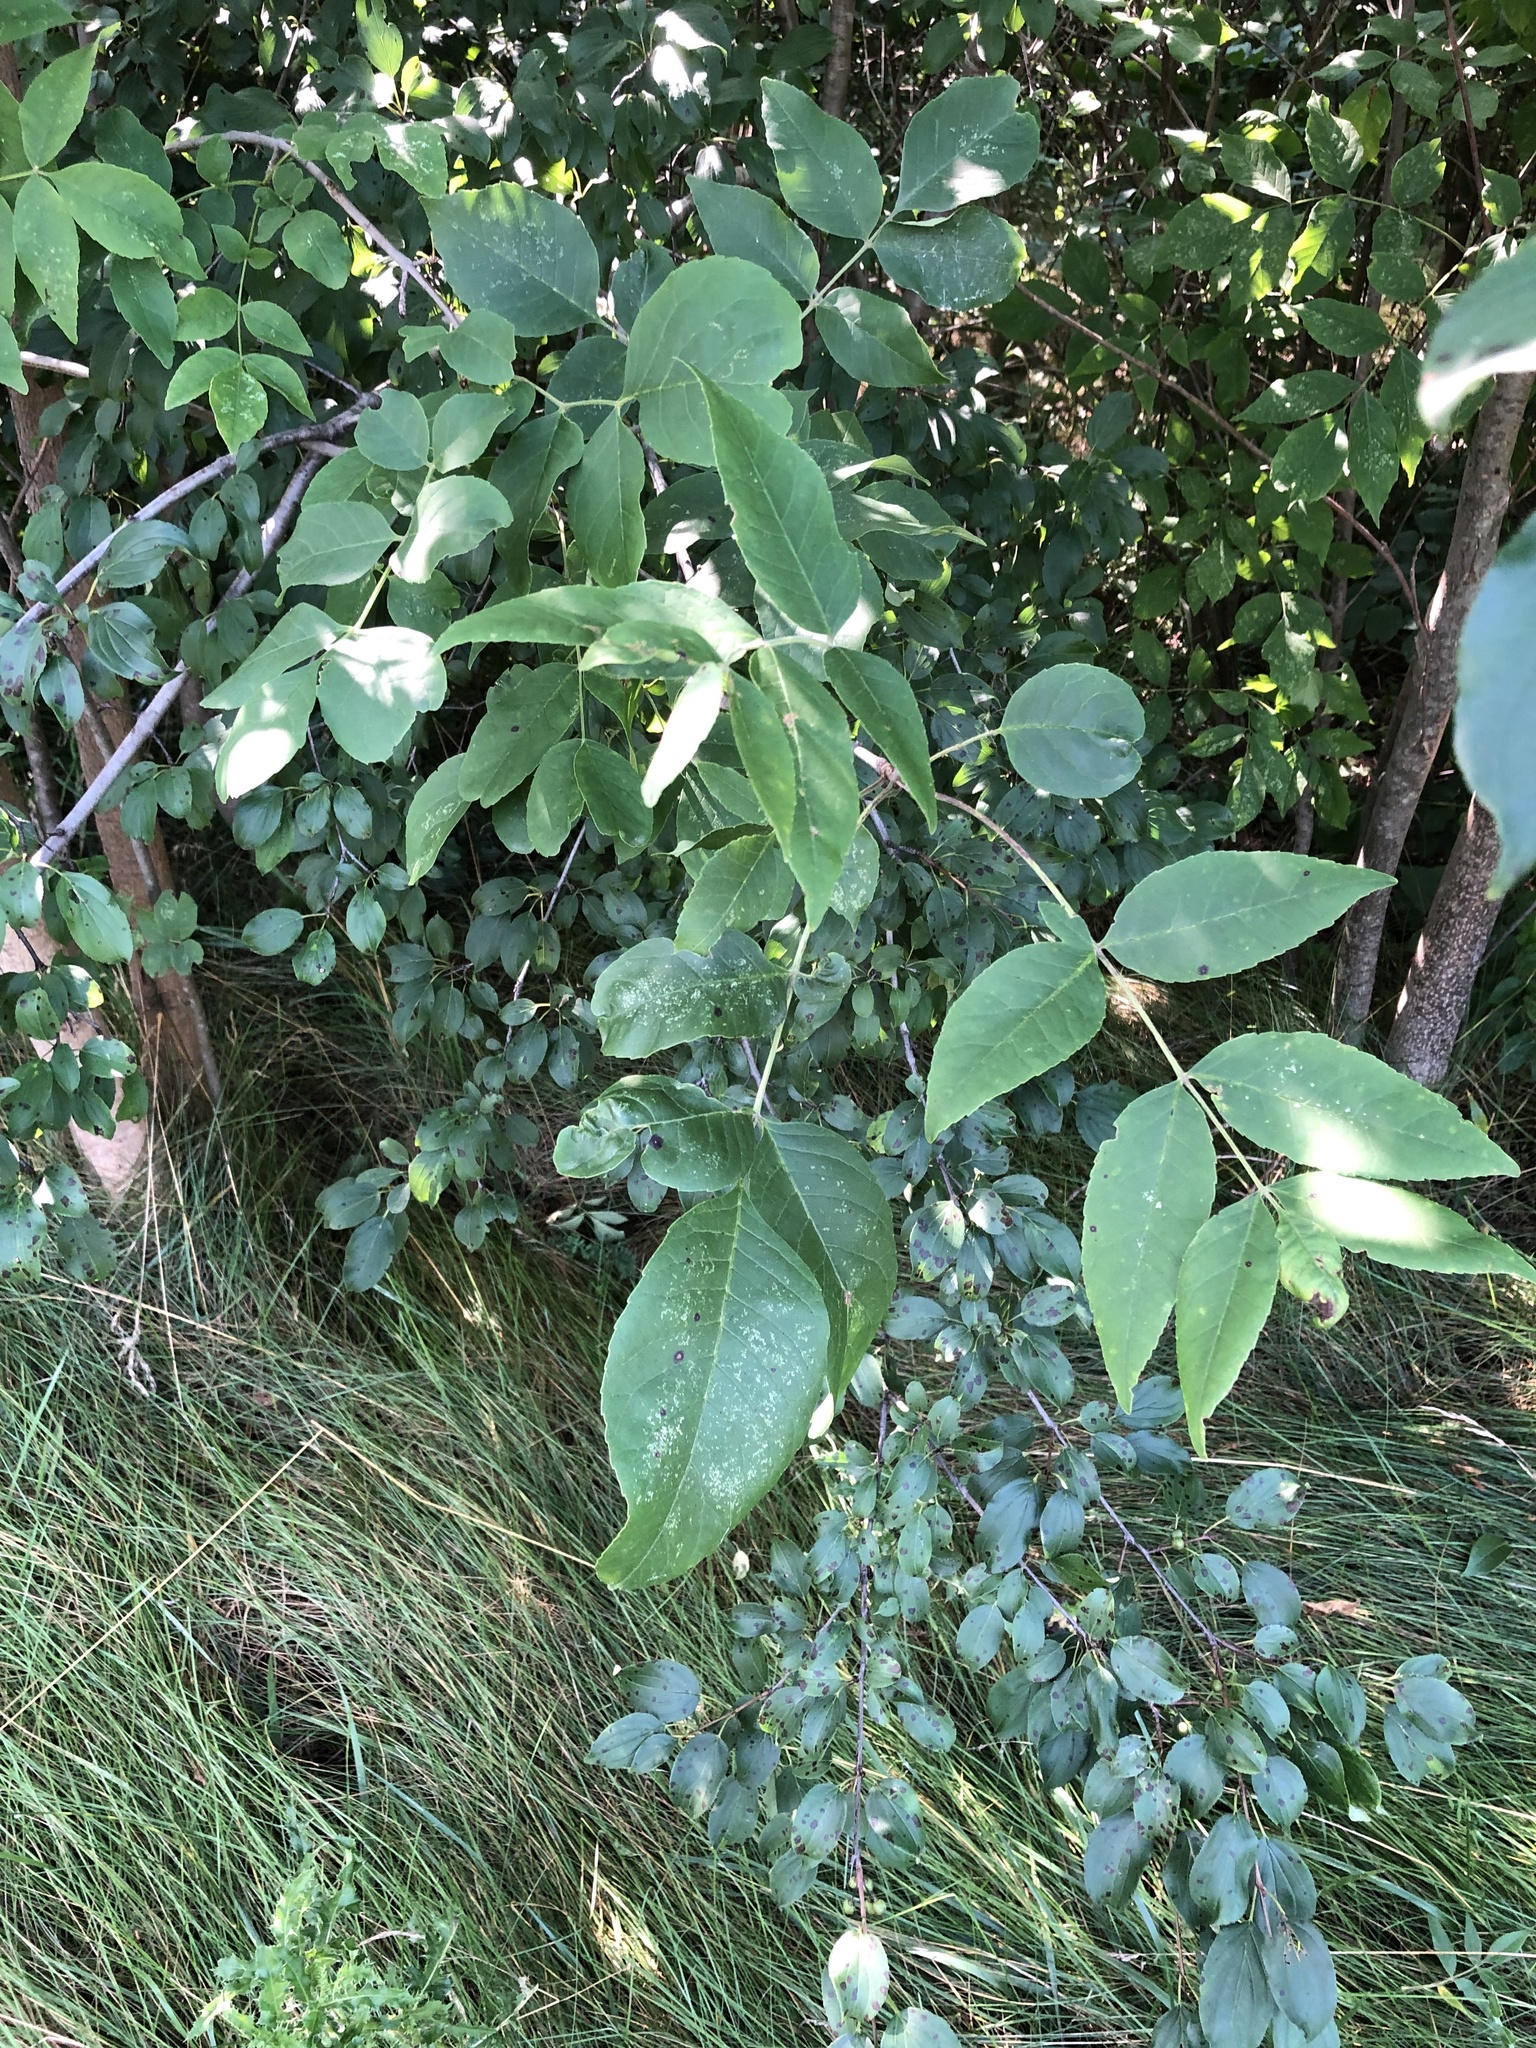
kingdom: Plantae
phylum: Tracheophyta
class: Magnoliopsida
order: Lamiales
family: Oleaceae
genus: Fraxinus
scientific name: Fraxinus pennsylvanica
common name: Green ash
